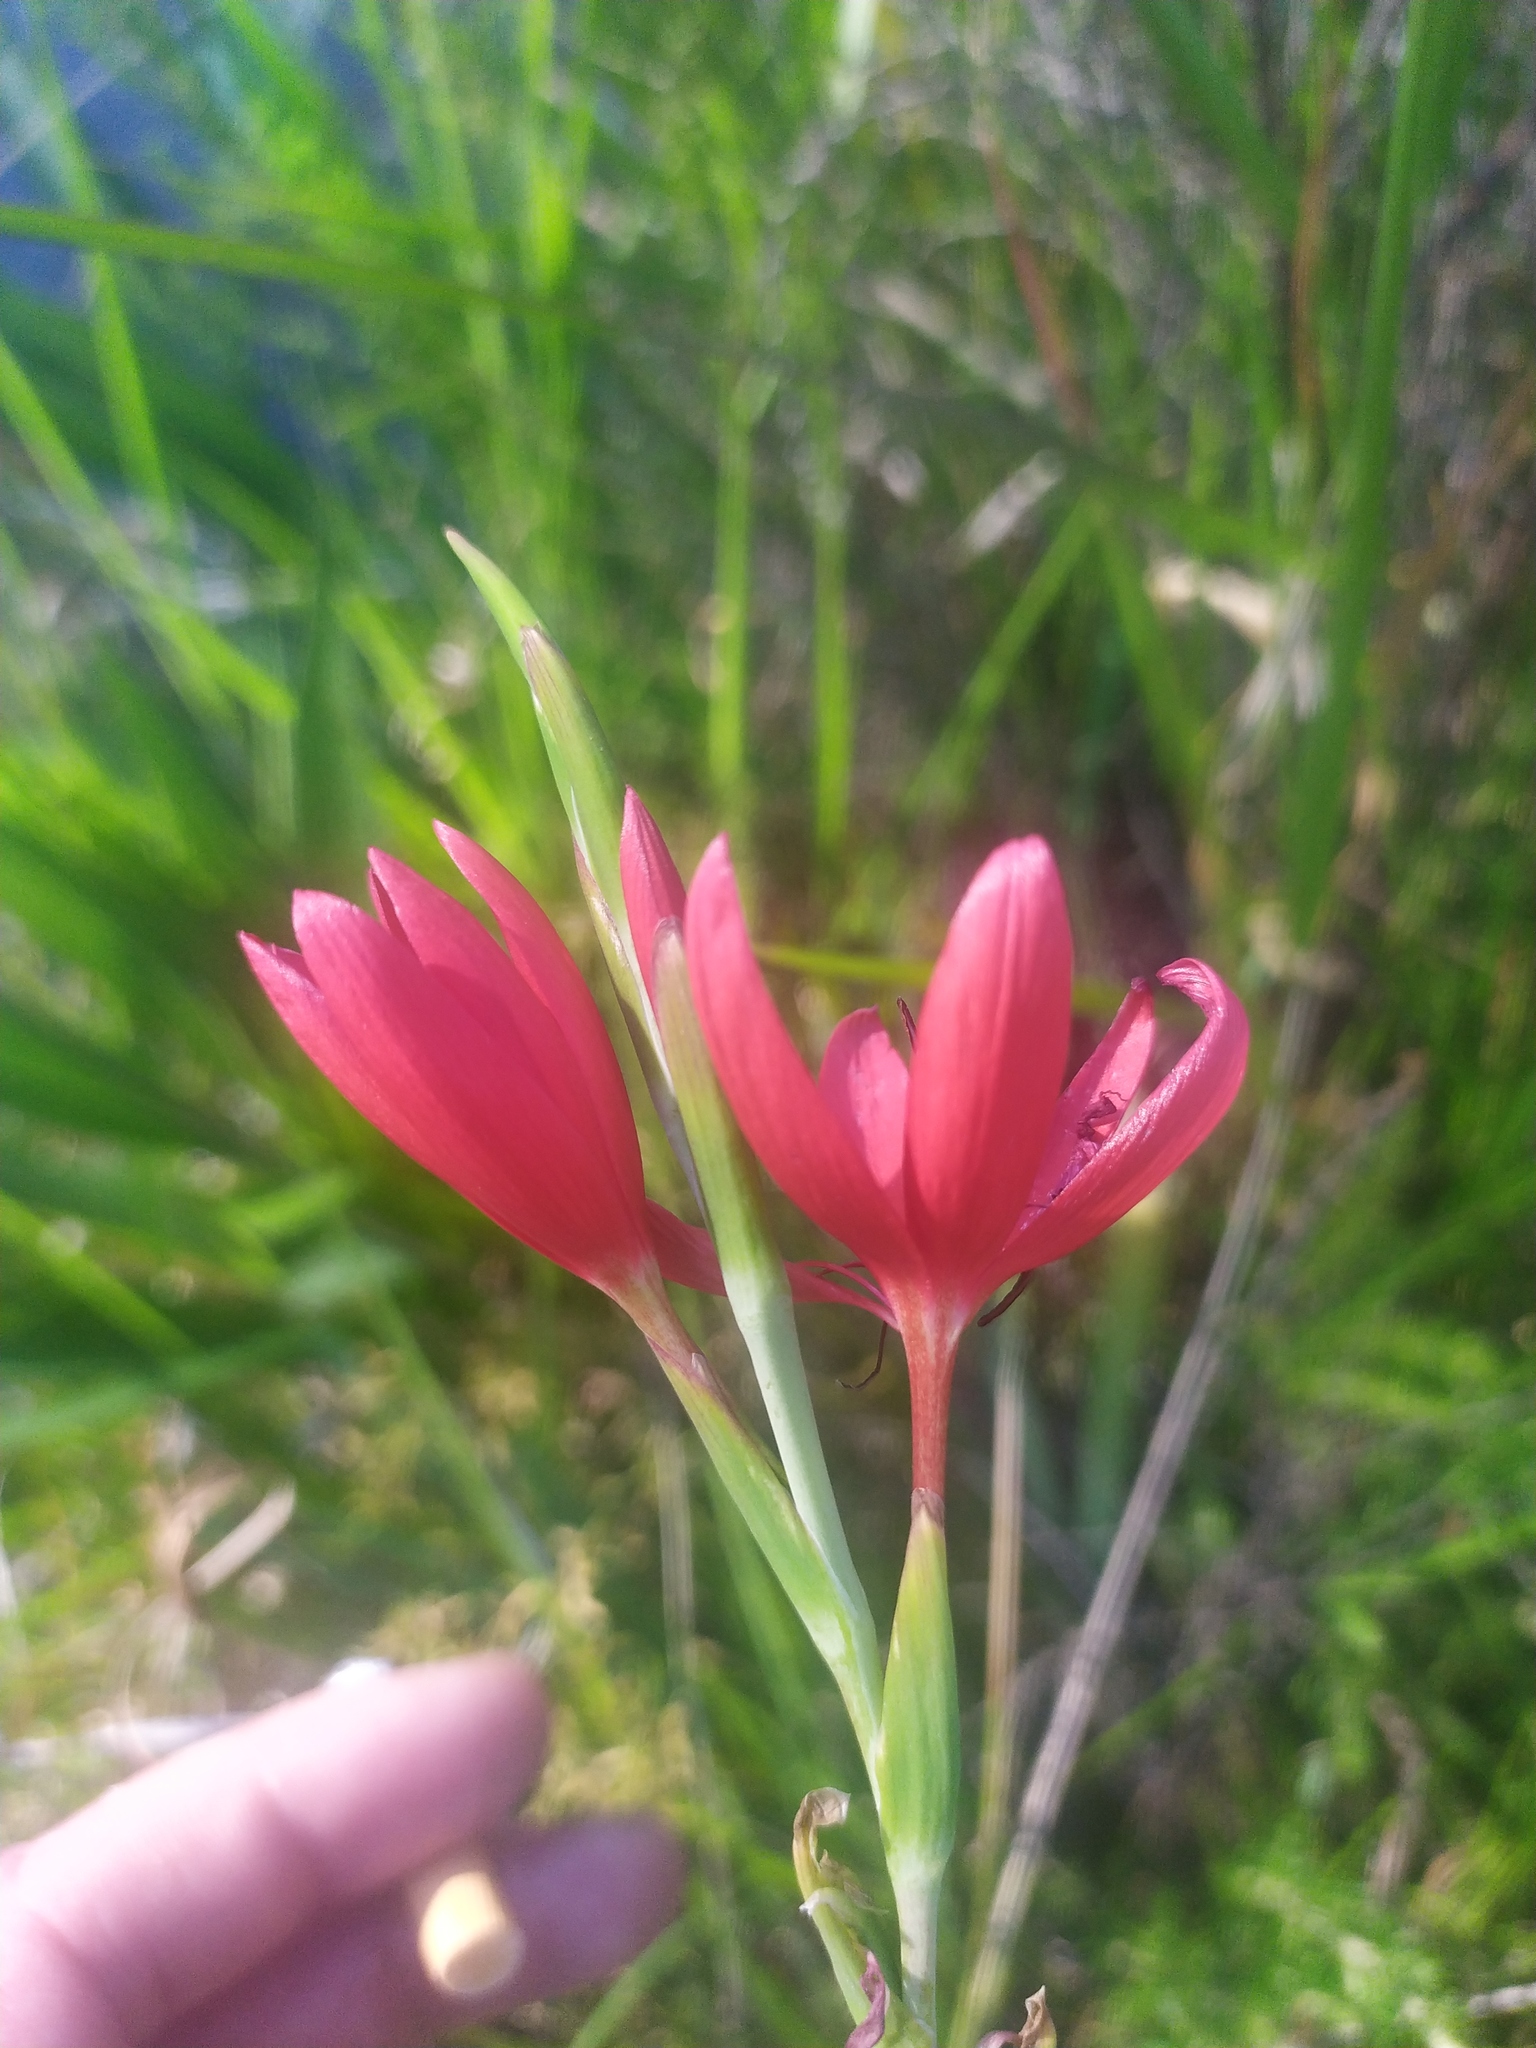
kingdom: Plantae
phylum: Tracheophyta
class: Liliopsida
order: Asparagales
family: Iridaceae
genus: Hesperantha
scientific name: Hesperantha coccinea
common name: River-lily
